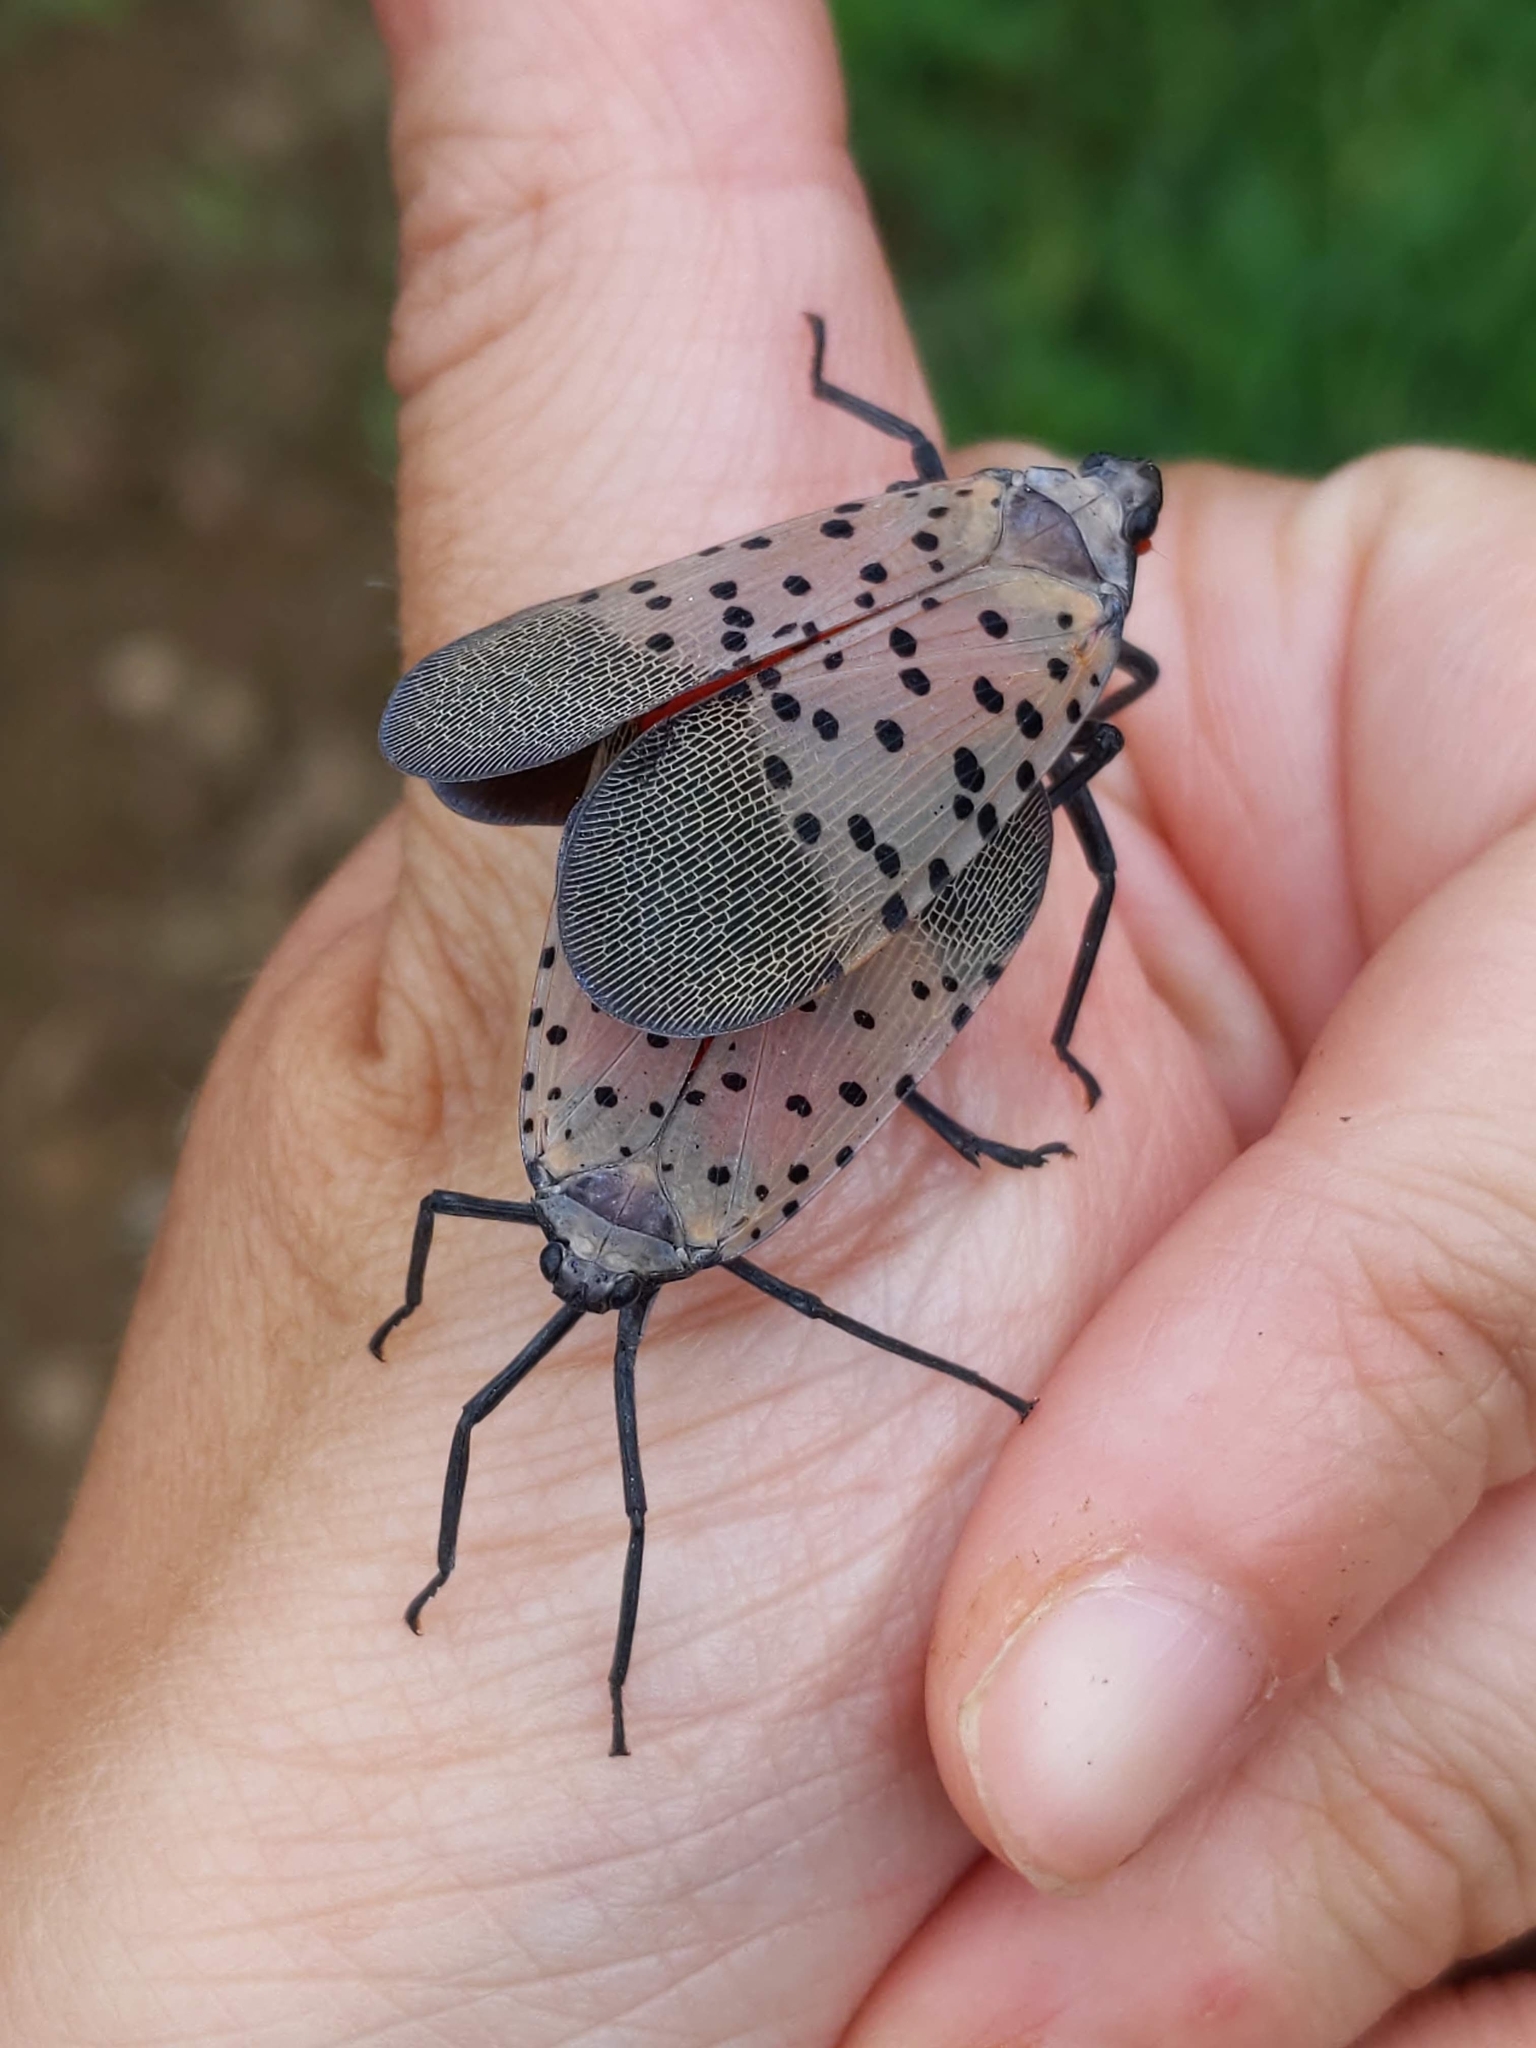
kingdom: Animalia
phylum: Arthropoda
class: Insecta
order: Hemiptera
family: Fulgoridae
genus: Lycorma
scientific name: Lycorma delicatula
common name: Spotted lanternfly
